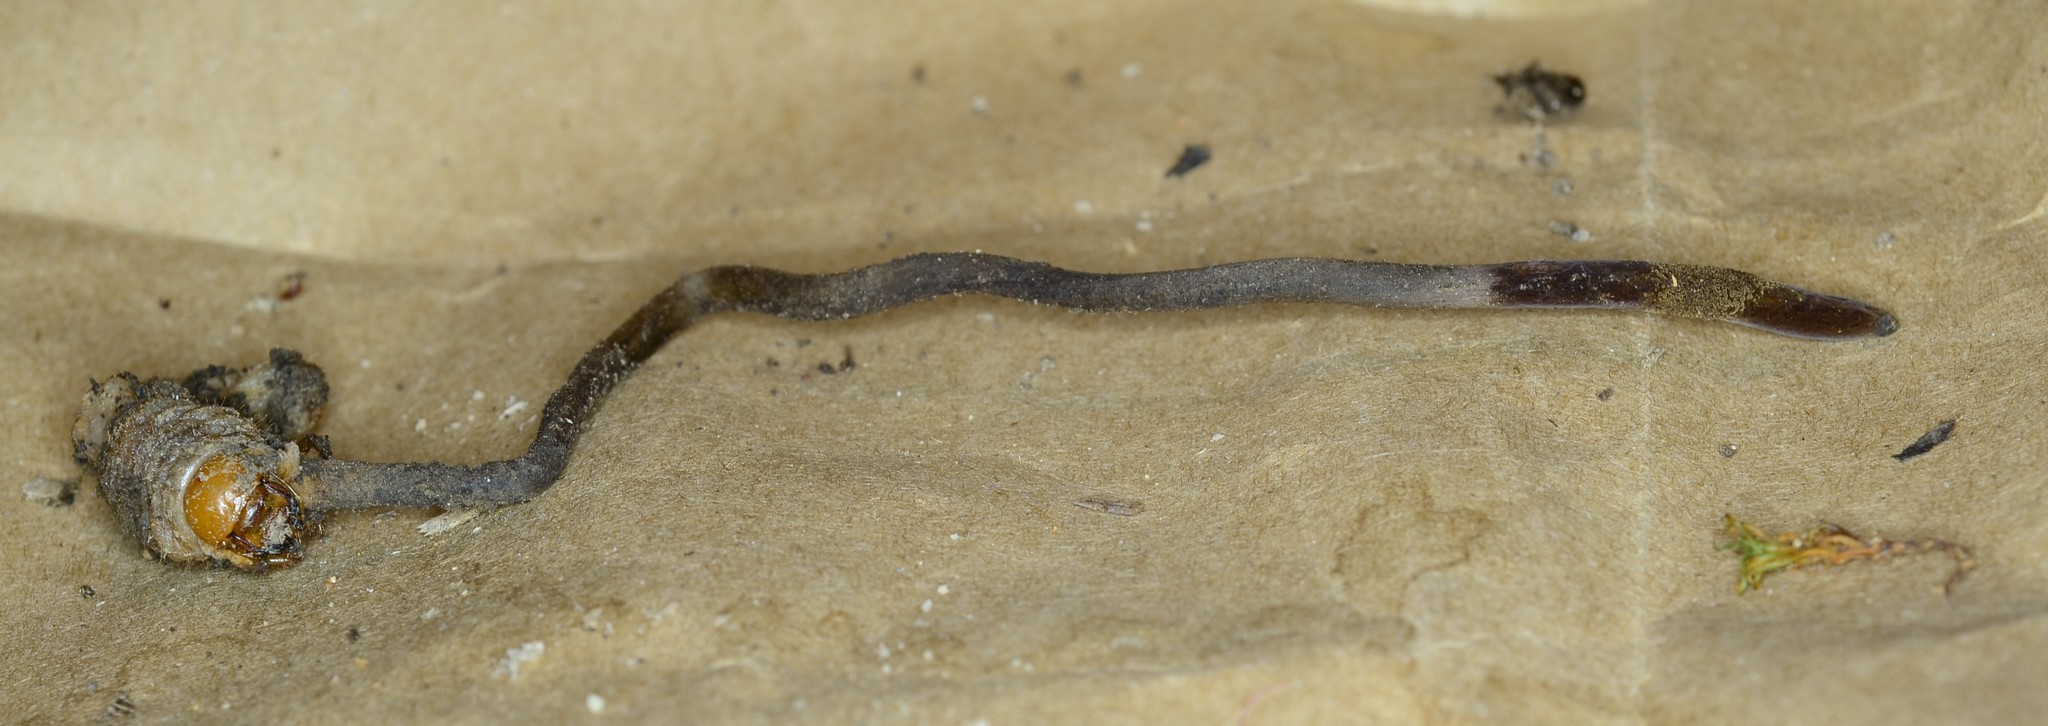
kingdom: Fungi
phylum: Ascomycota
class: Sordariomycetes
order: Hypocreales
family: Ophiocordycipitaceae
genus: Ophiocordyceps
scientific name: Ophiocordyceps ravenelii
